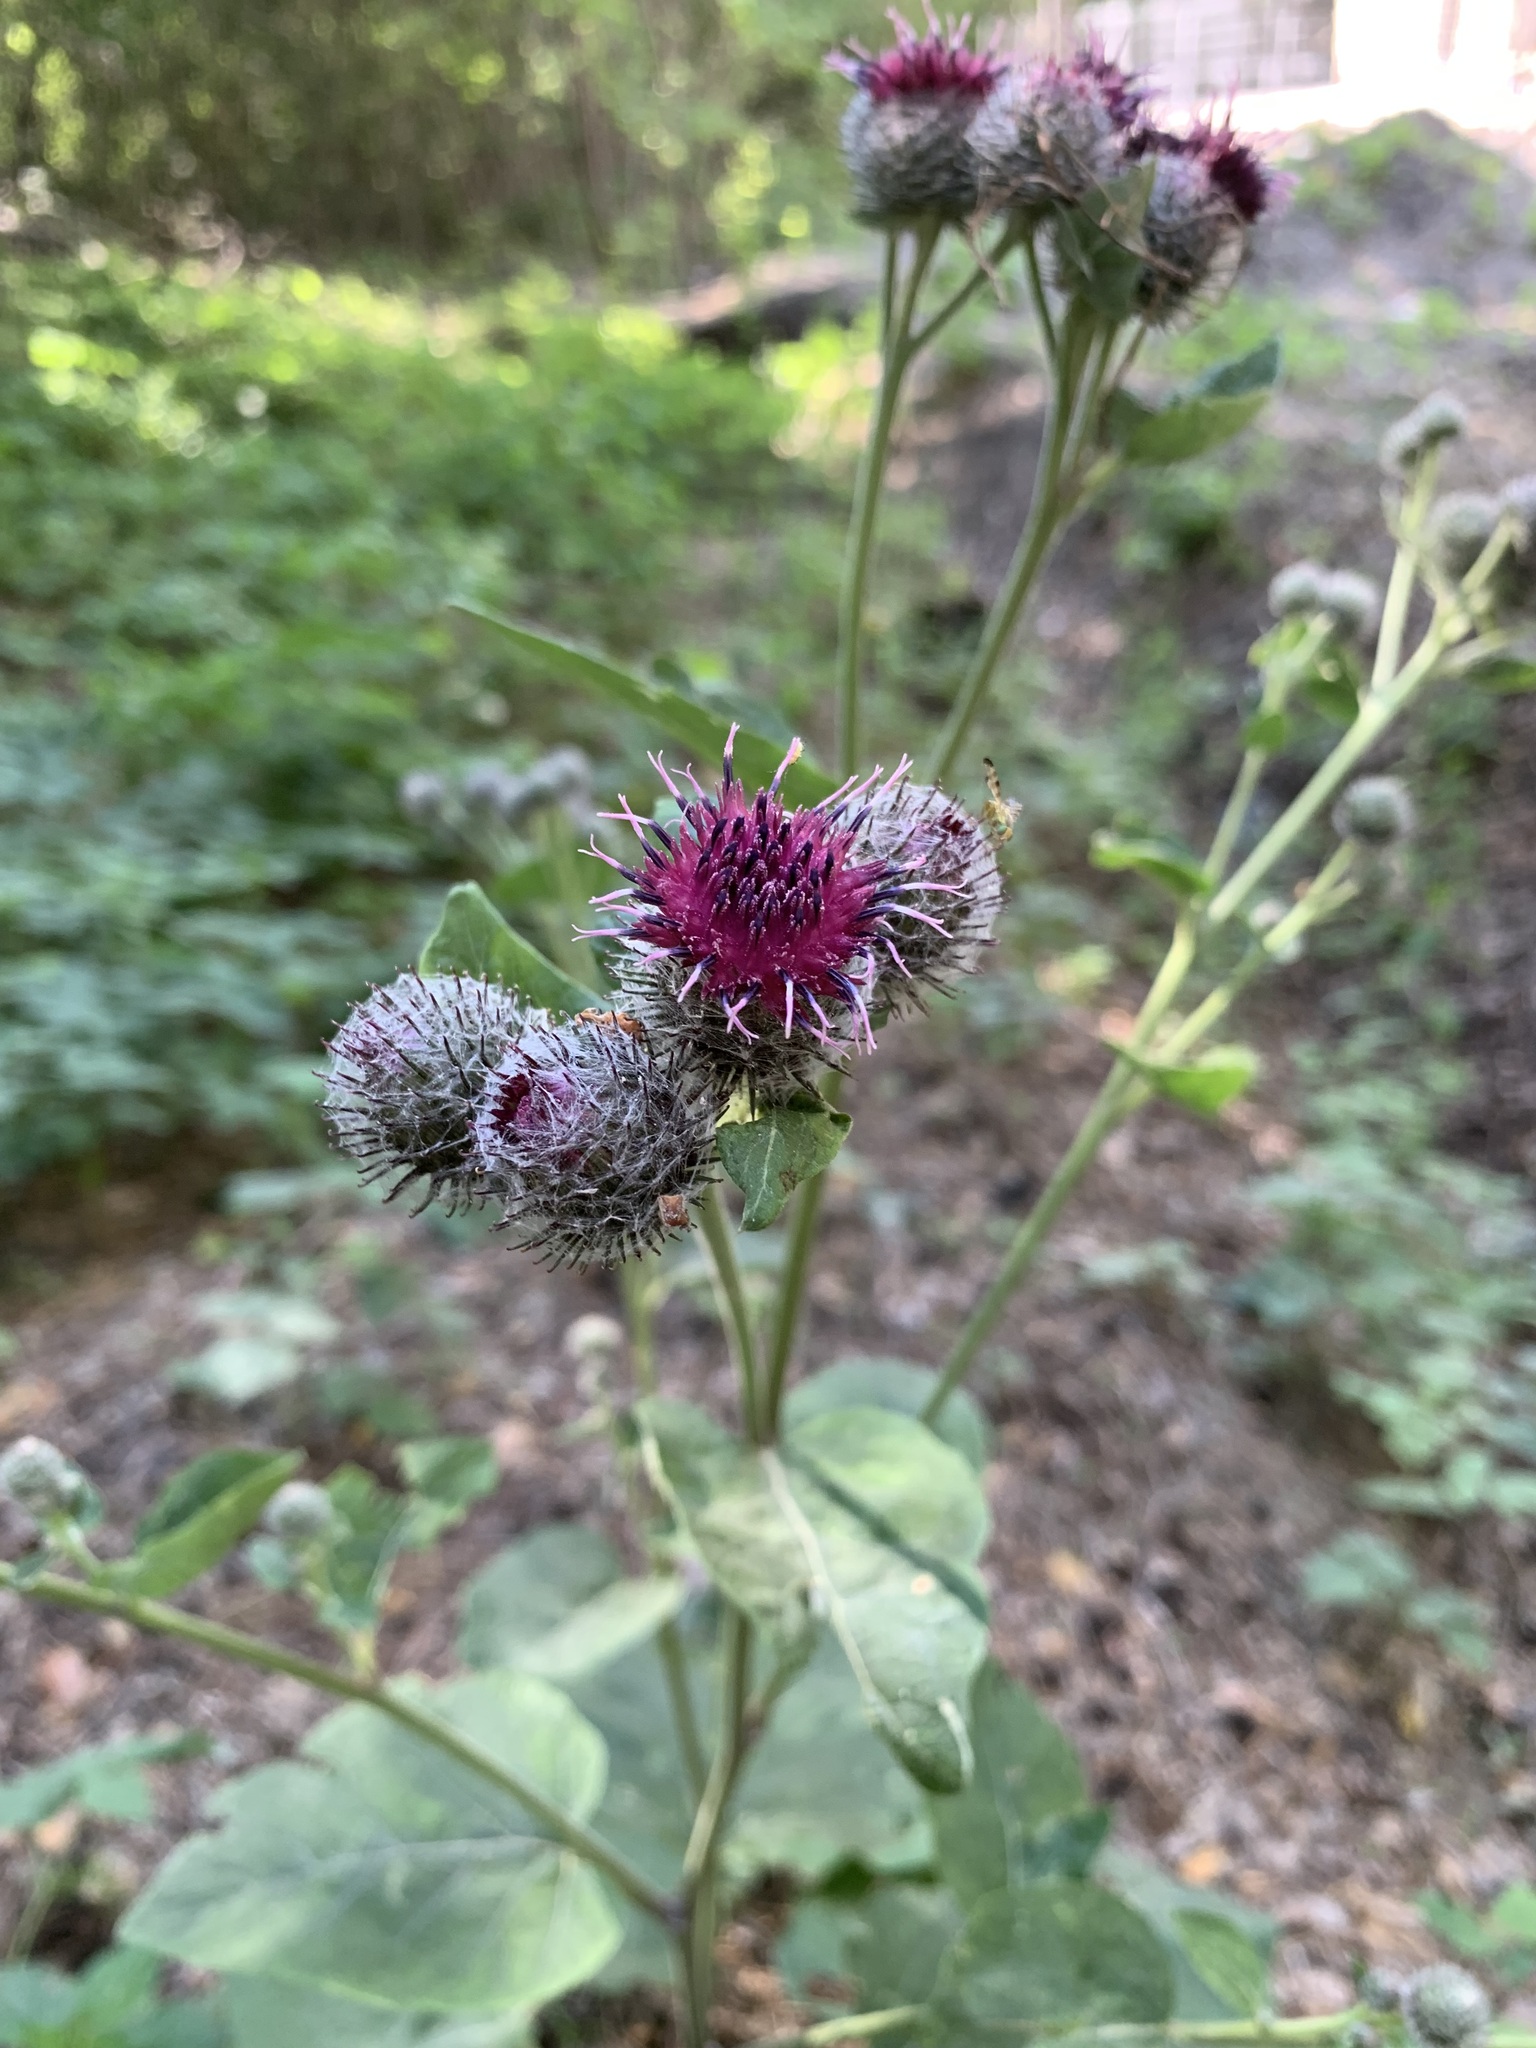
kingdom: Plantae
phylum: Tracheophyta
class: Magnoliopsida
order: Asterales
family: Asteraceae
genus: Arctium
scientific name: Arctium tomentosum
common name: Woolly burdock
